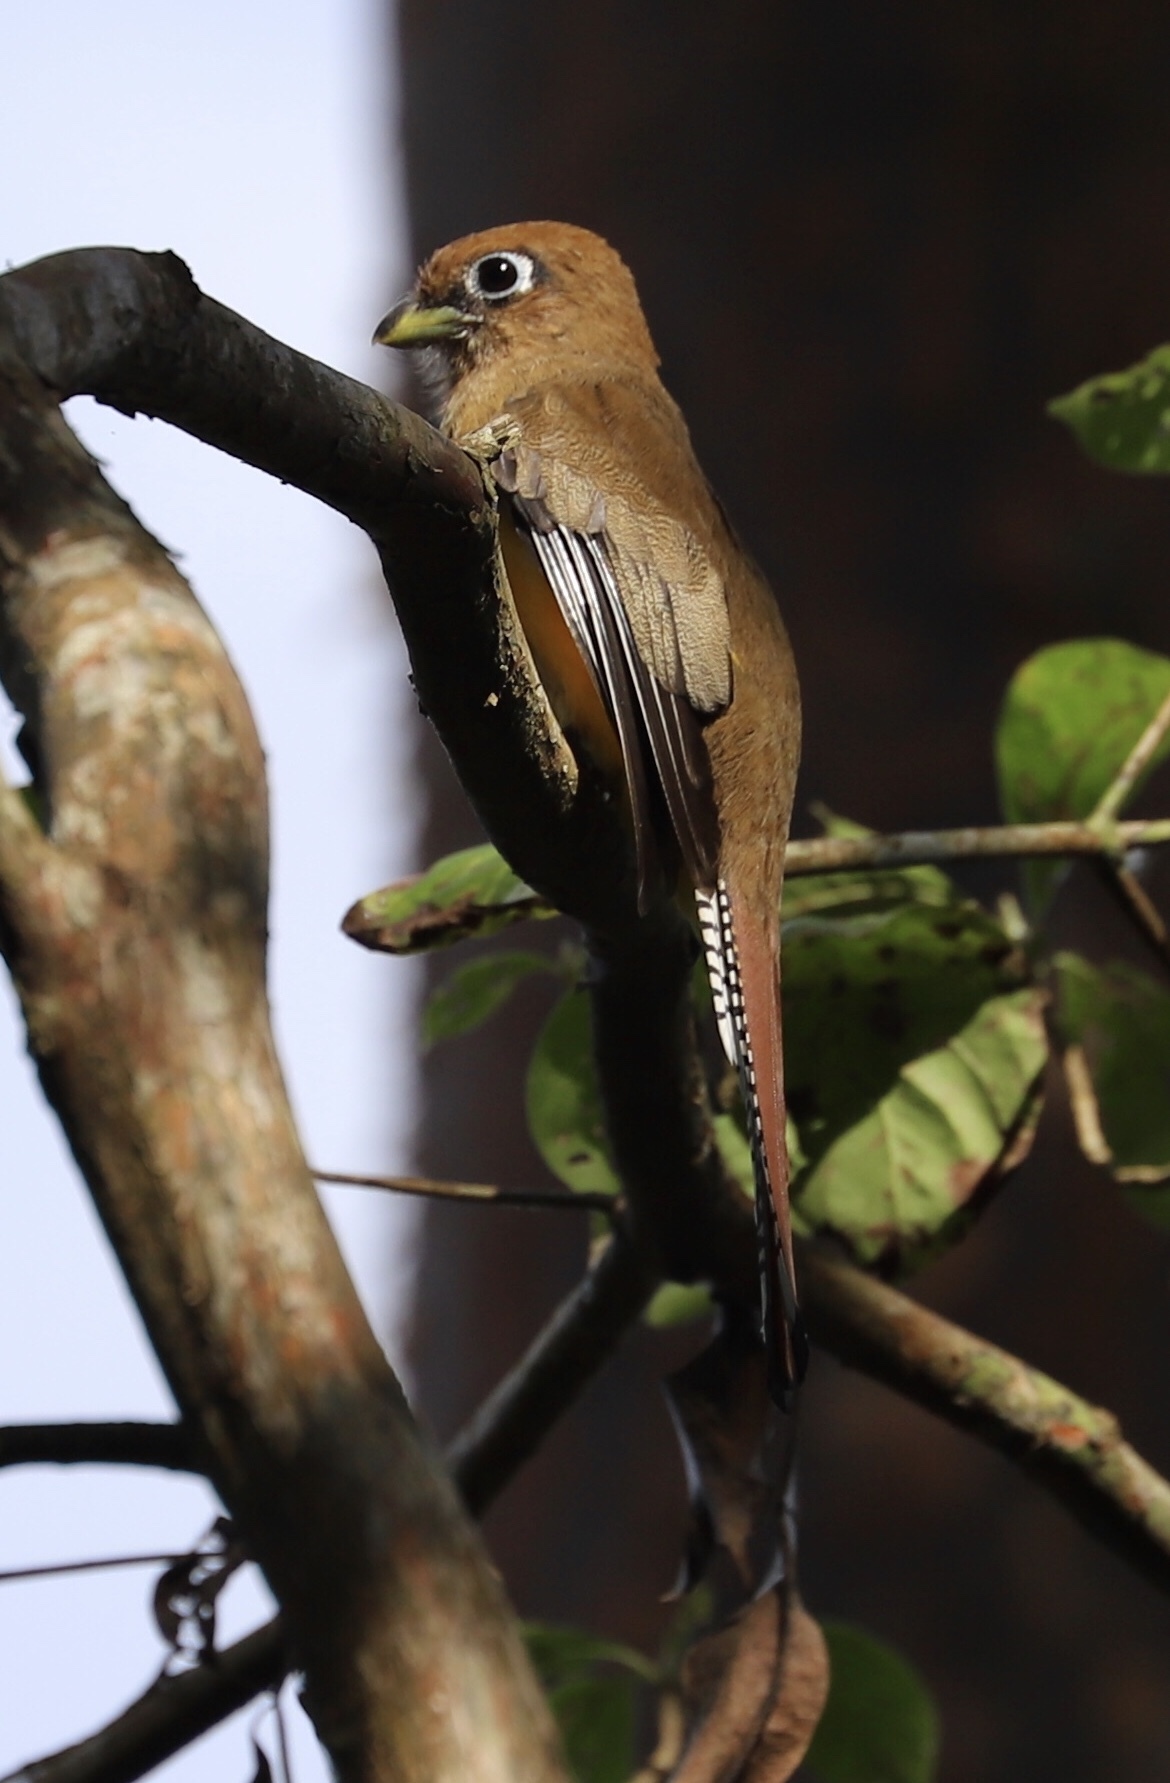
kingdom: Animalia
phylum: Chordata
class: Aves
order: Trogoniformes
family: Trogonidae
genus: Trogon
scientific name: Trogon rufus
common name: Black-throated trogon
